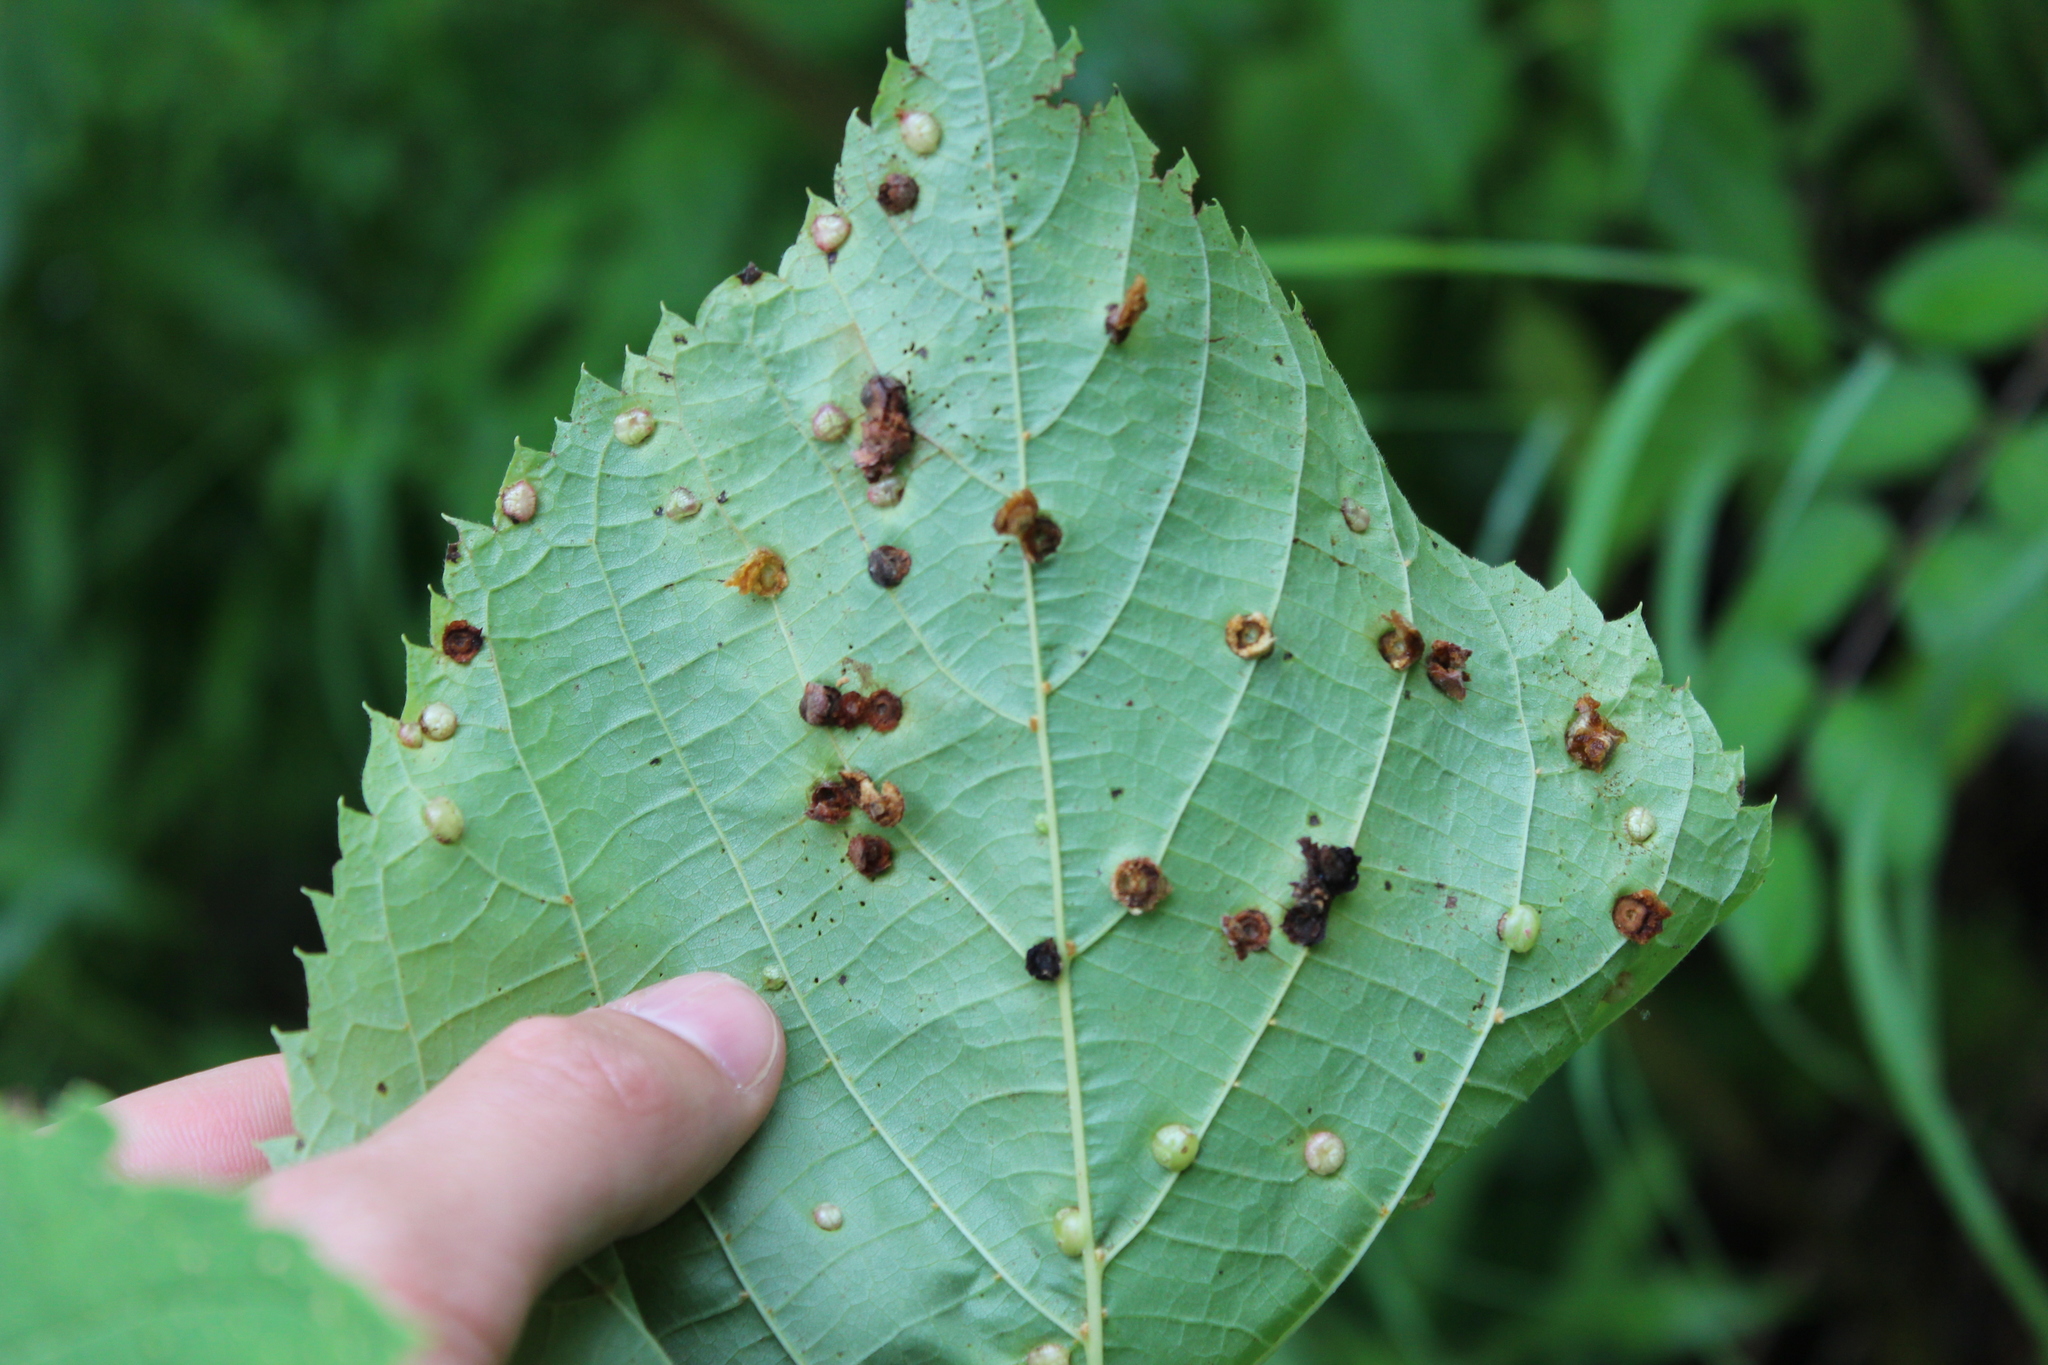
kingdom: Animalia
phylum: Arthropoda
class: Insecta
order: Diptera
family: Cecidomyiidae
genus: Contarinia
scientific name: Contarinia verrucicola
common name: Linden wart gall midge
